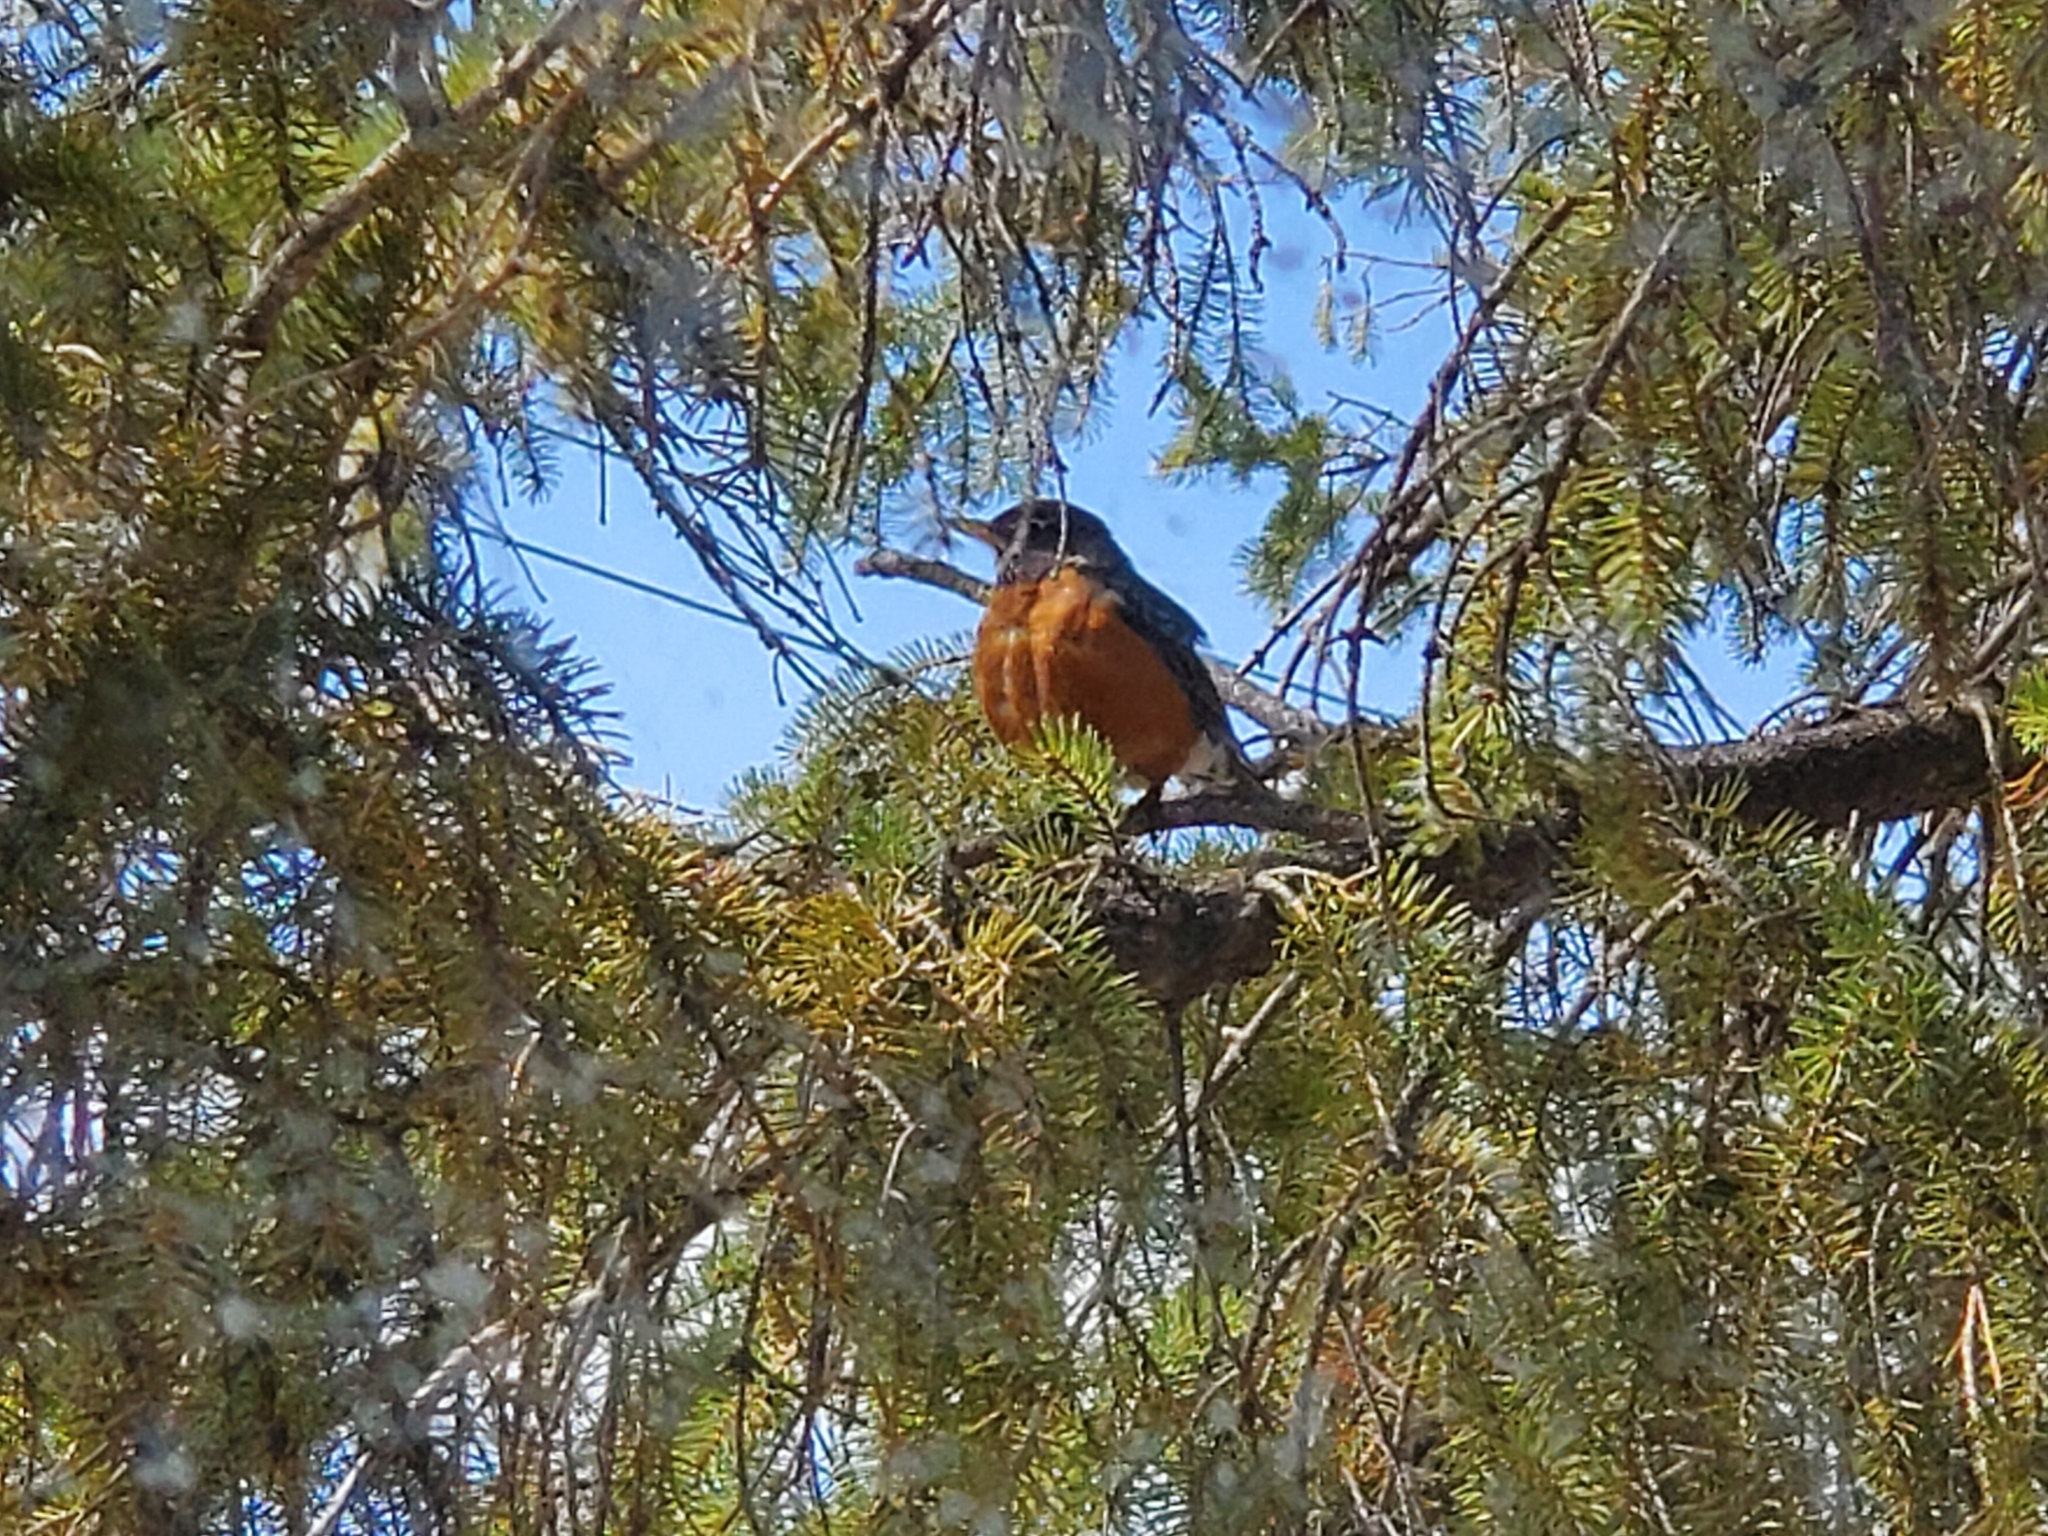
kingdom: Animalia
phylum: Chordata
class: Aves
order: Passeriformes
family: Turdidae
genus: Turdus
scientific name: Turdus migratorius
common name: American robin
